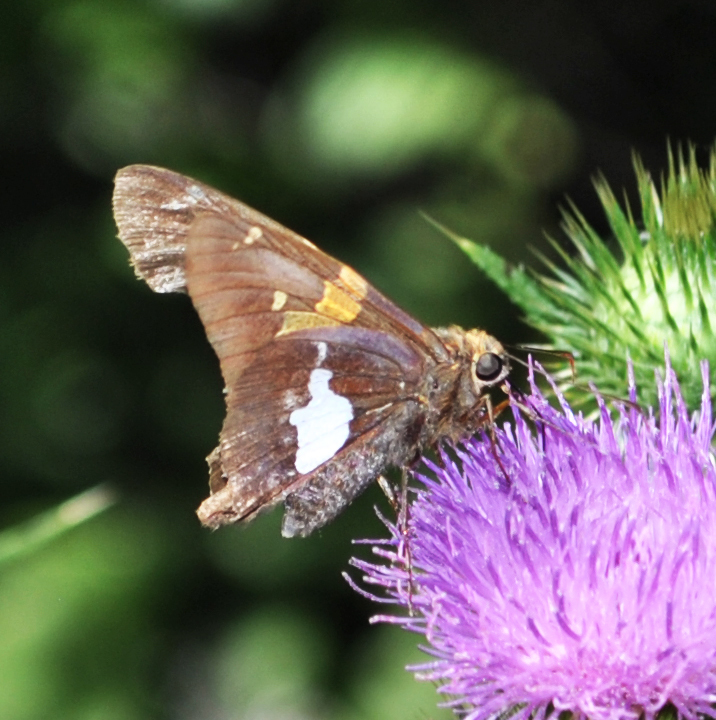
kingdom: Animalia
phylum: Arthropoda
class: Insecta
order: Lepidoptera
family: Hesperiidae
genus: Epargyreus
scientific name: Epargyreus clarus
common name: Silver-spotted skipper
